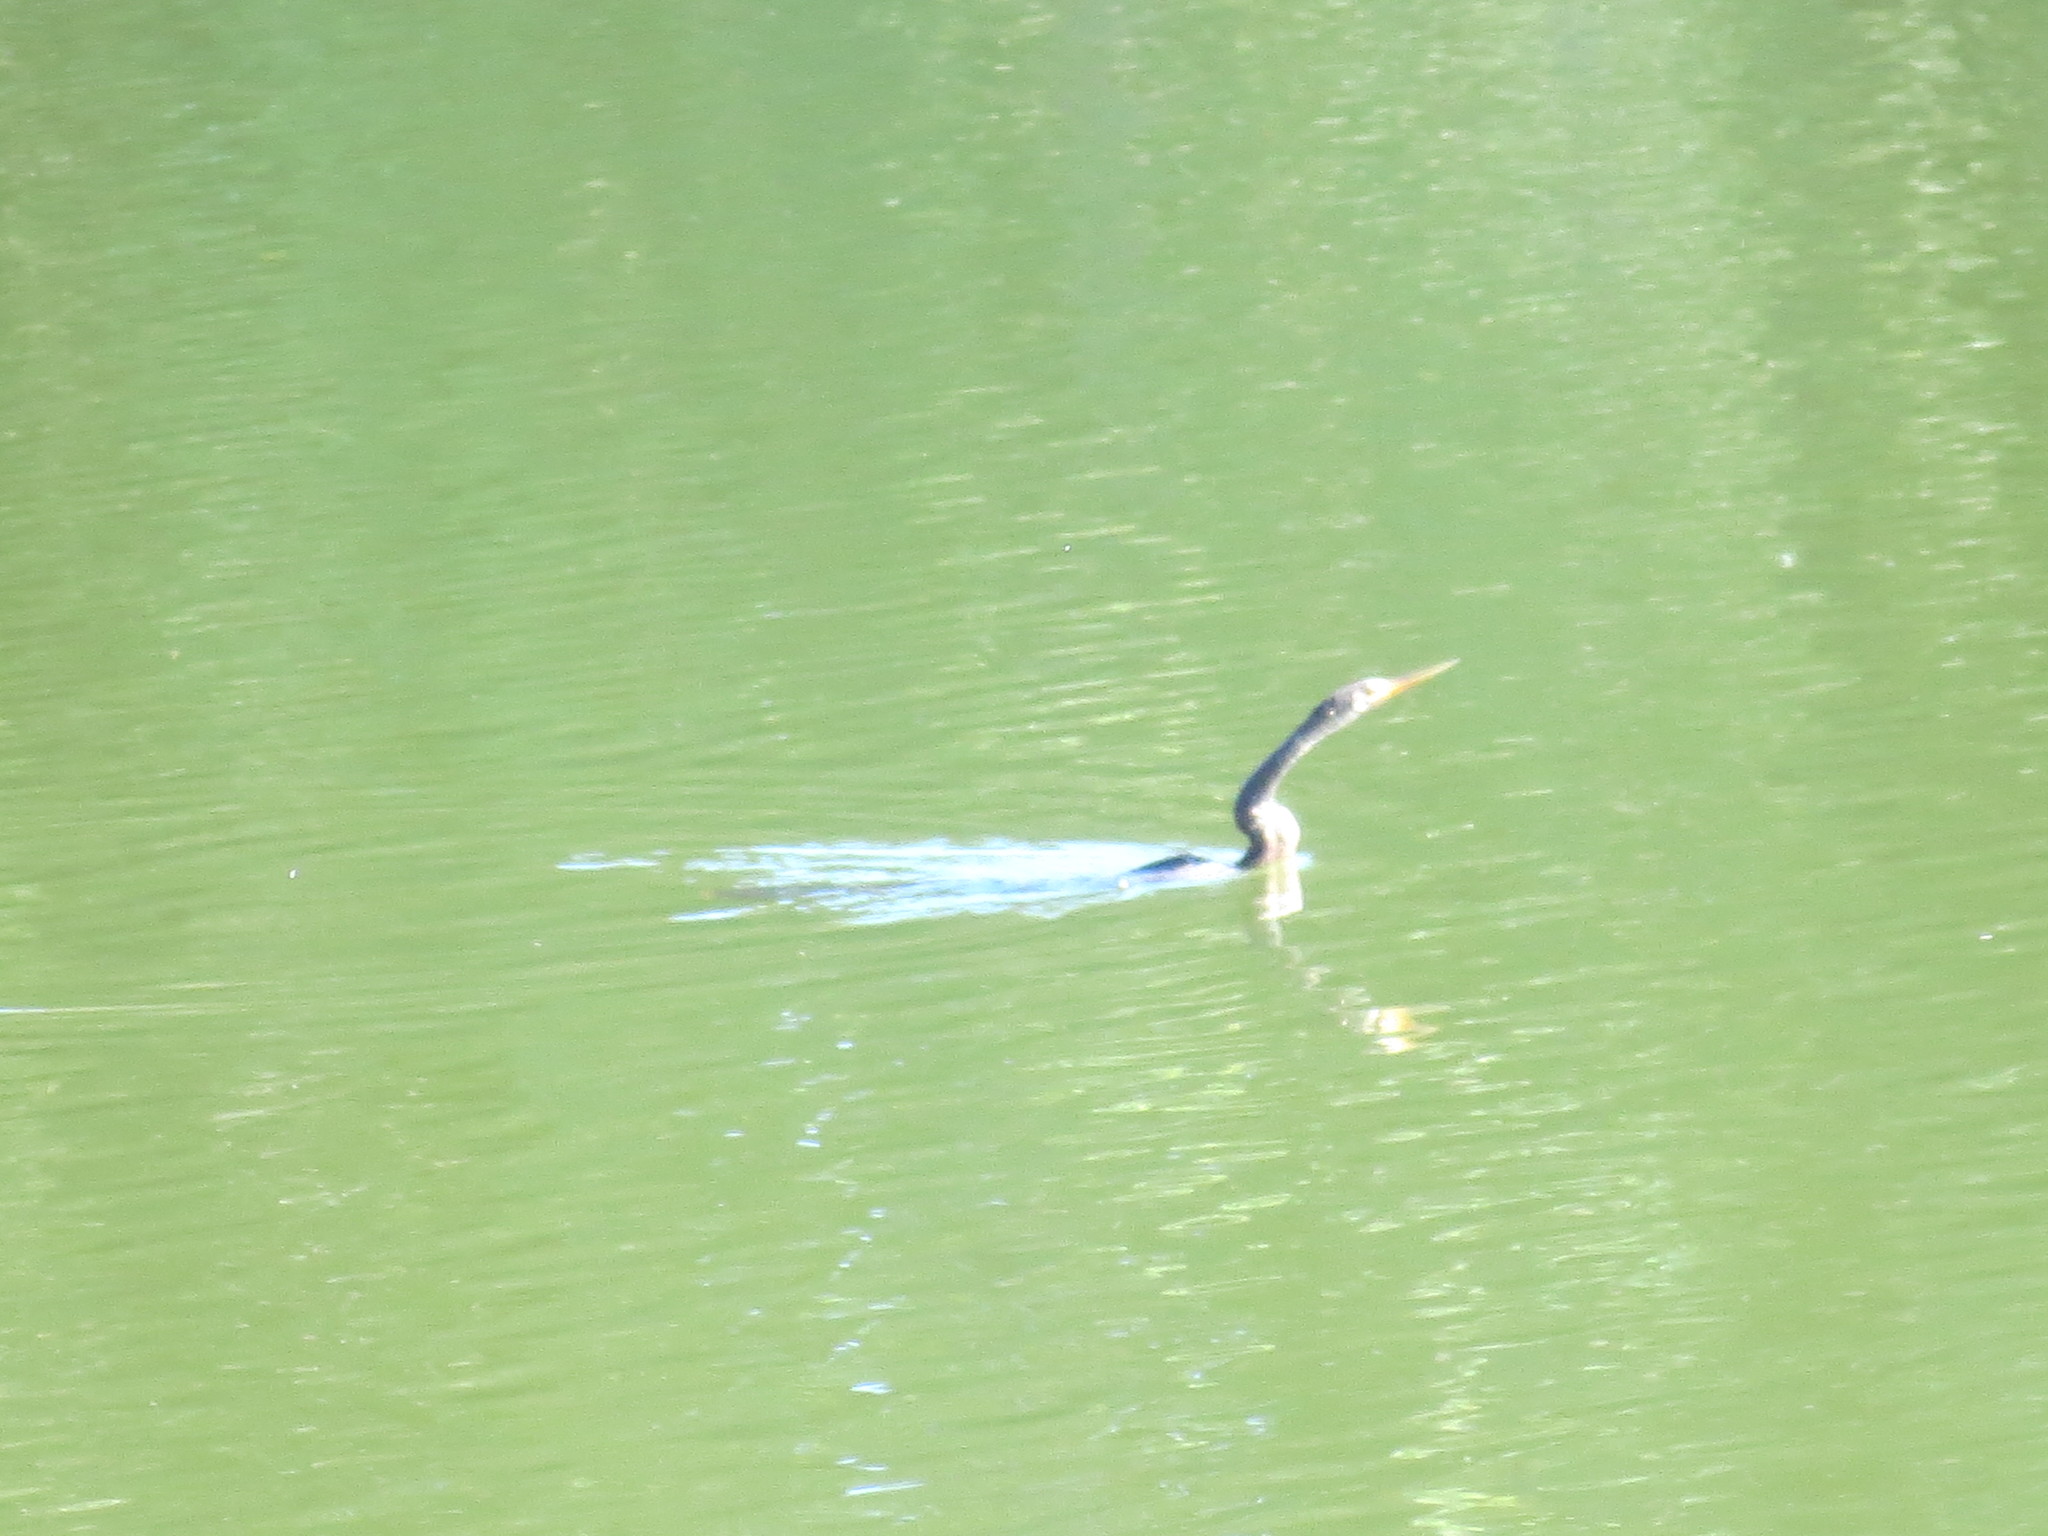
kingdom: Animalia
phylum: Chordata
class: Aves
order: Suliformes
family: Anhingidae
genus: Anhinga
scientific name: Anhinga anhinga
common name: Anhinga
